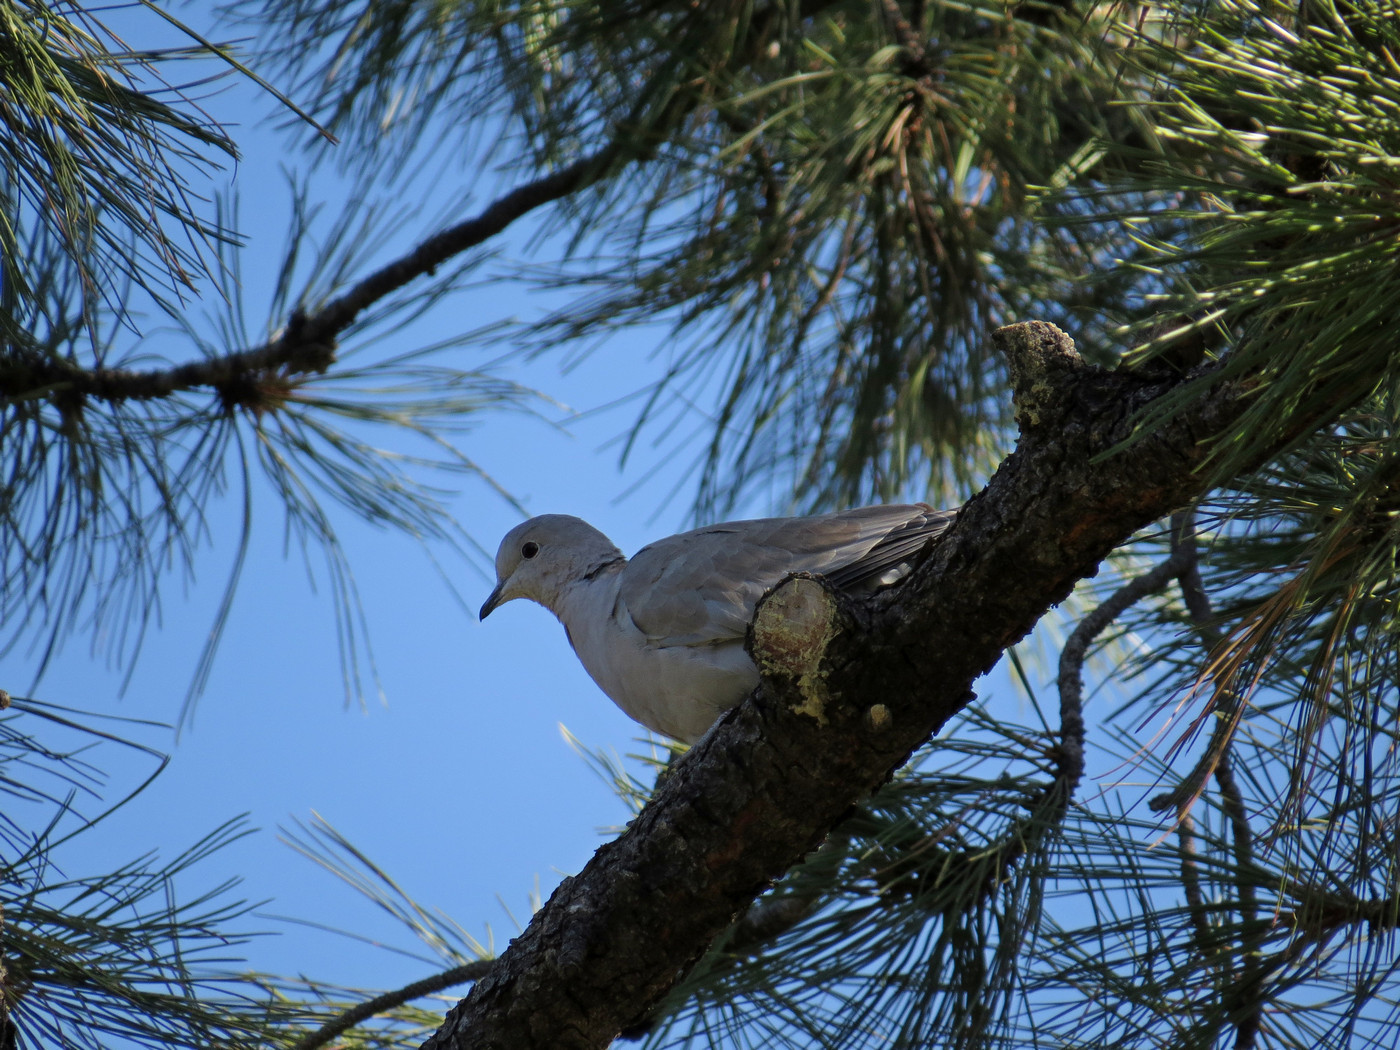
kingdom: Animalia
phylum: Chordata
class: Aves
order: Columbiformes
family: Columbidae
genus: Streptopelia
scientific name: Streptopelia decaocto
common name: Eurasian collared dove
